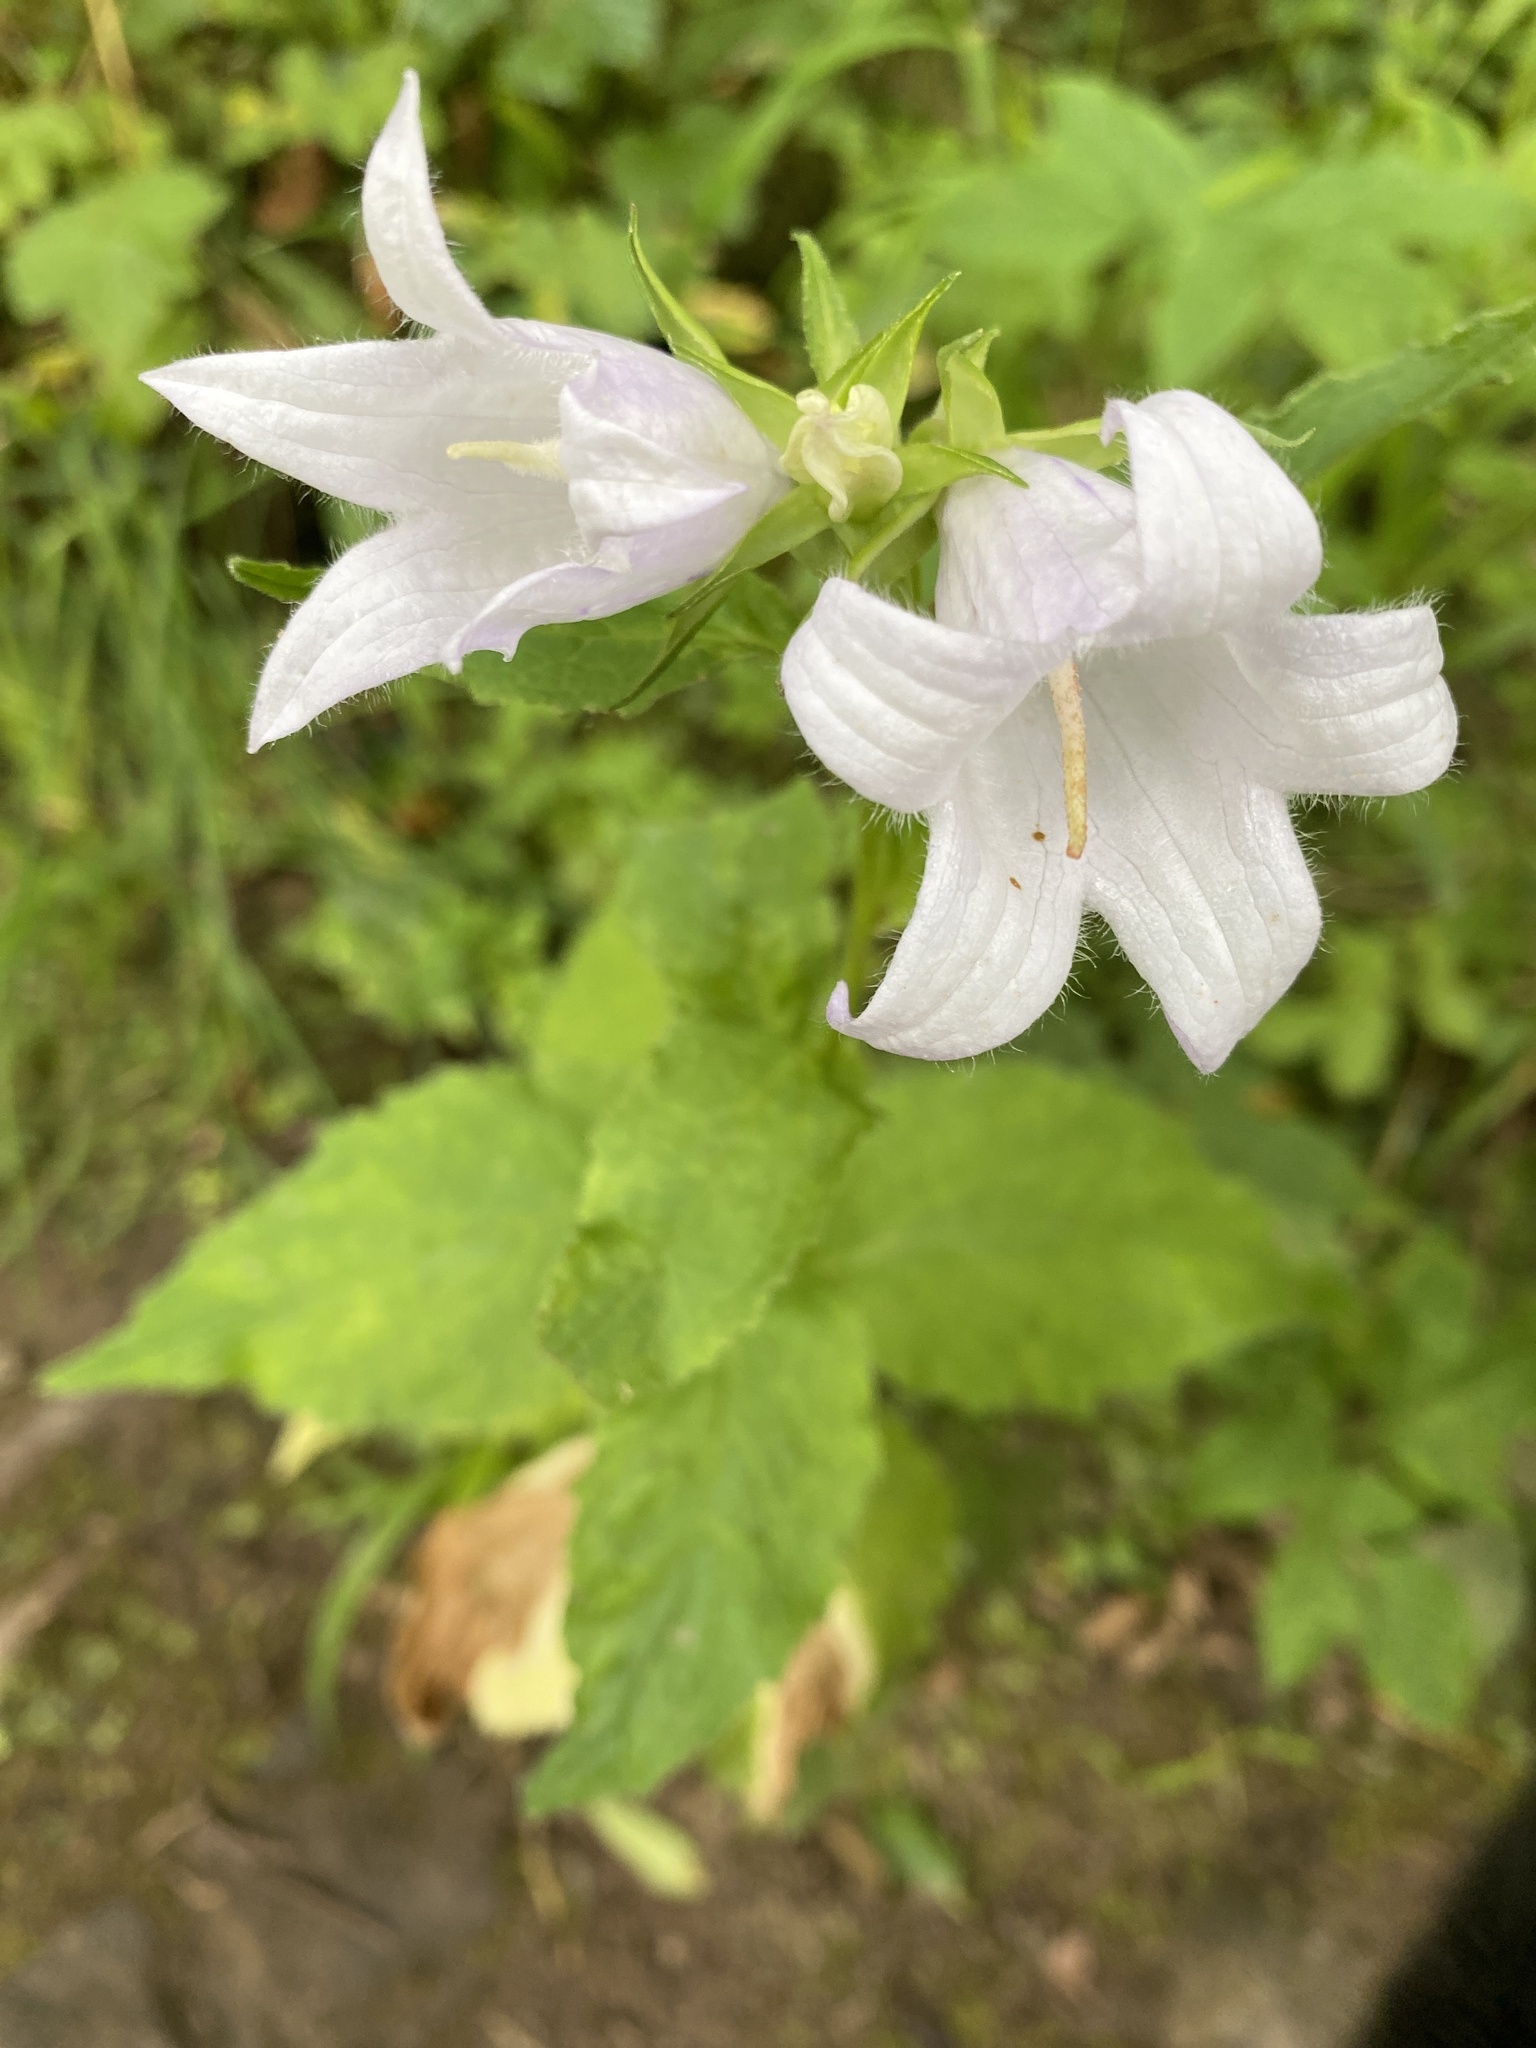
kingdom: Plantae
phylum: Tracheophyta
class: Magnoliopsida
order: Asterales
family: Campanulaceae
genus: Campanula
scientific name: Campanula latifolia
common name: Giant bellflower
